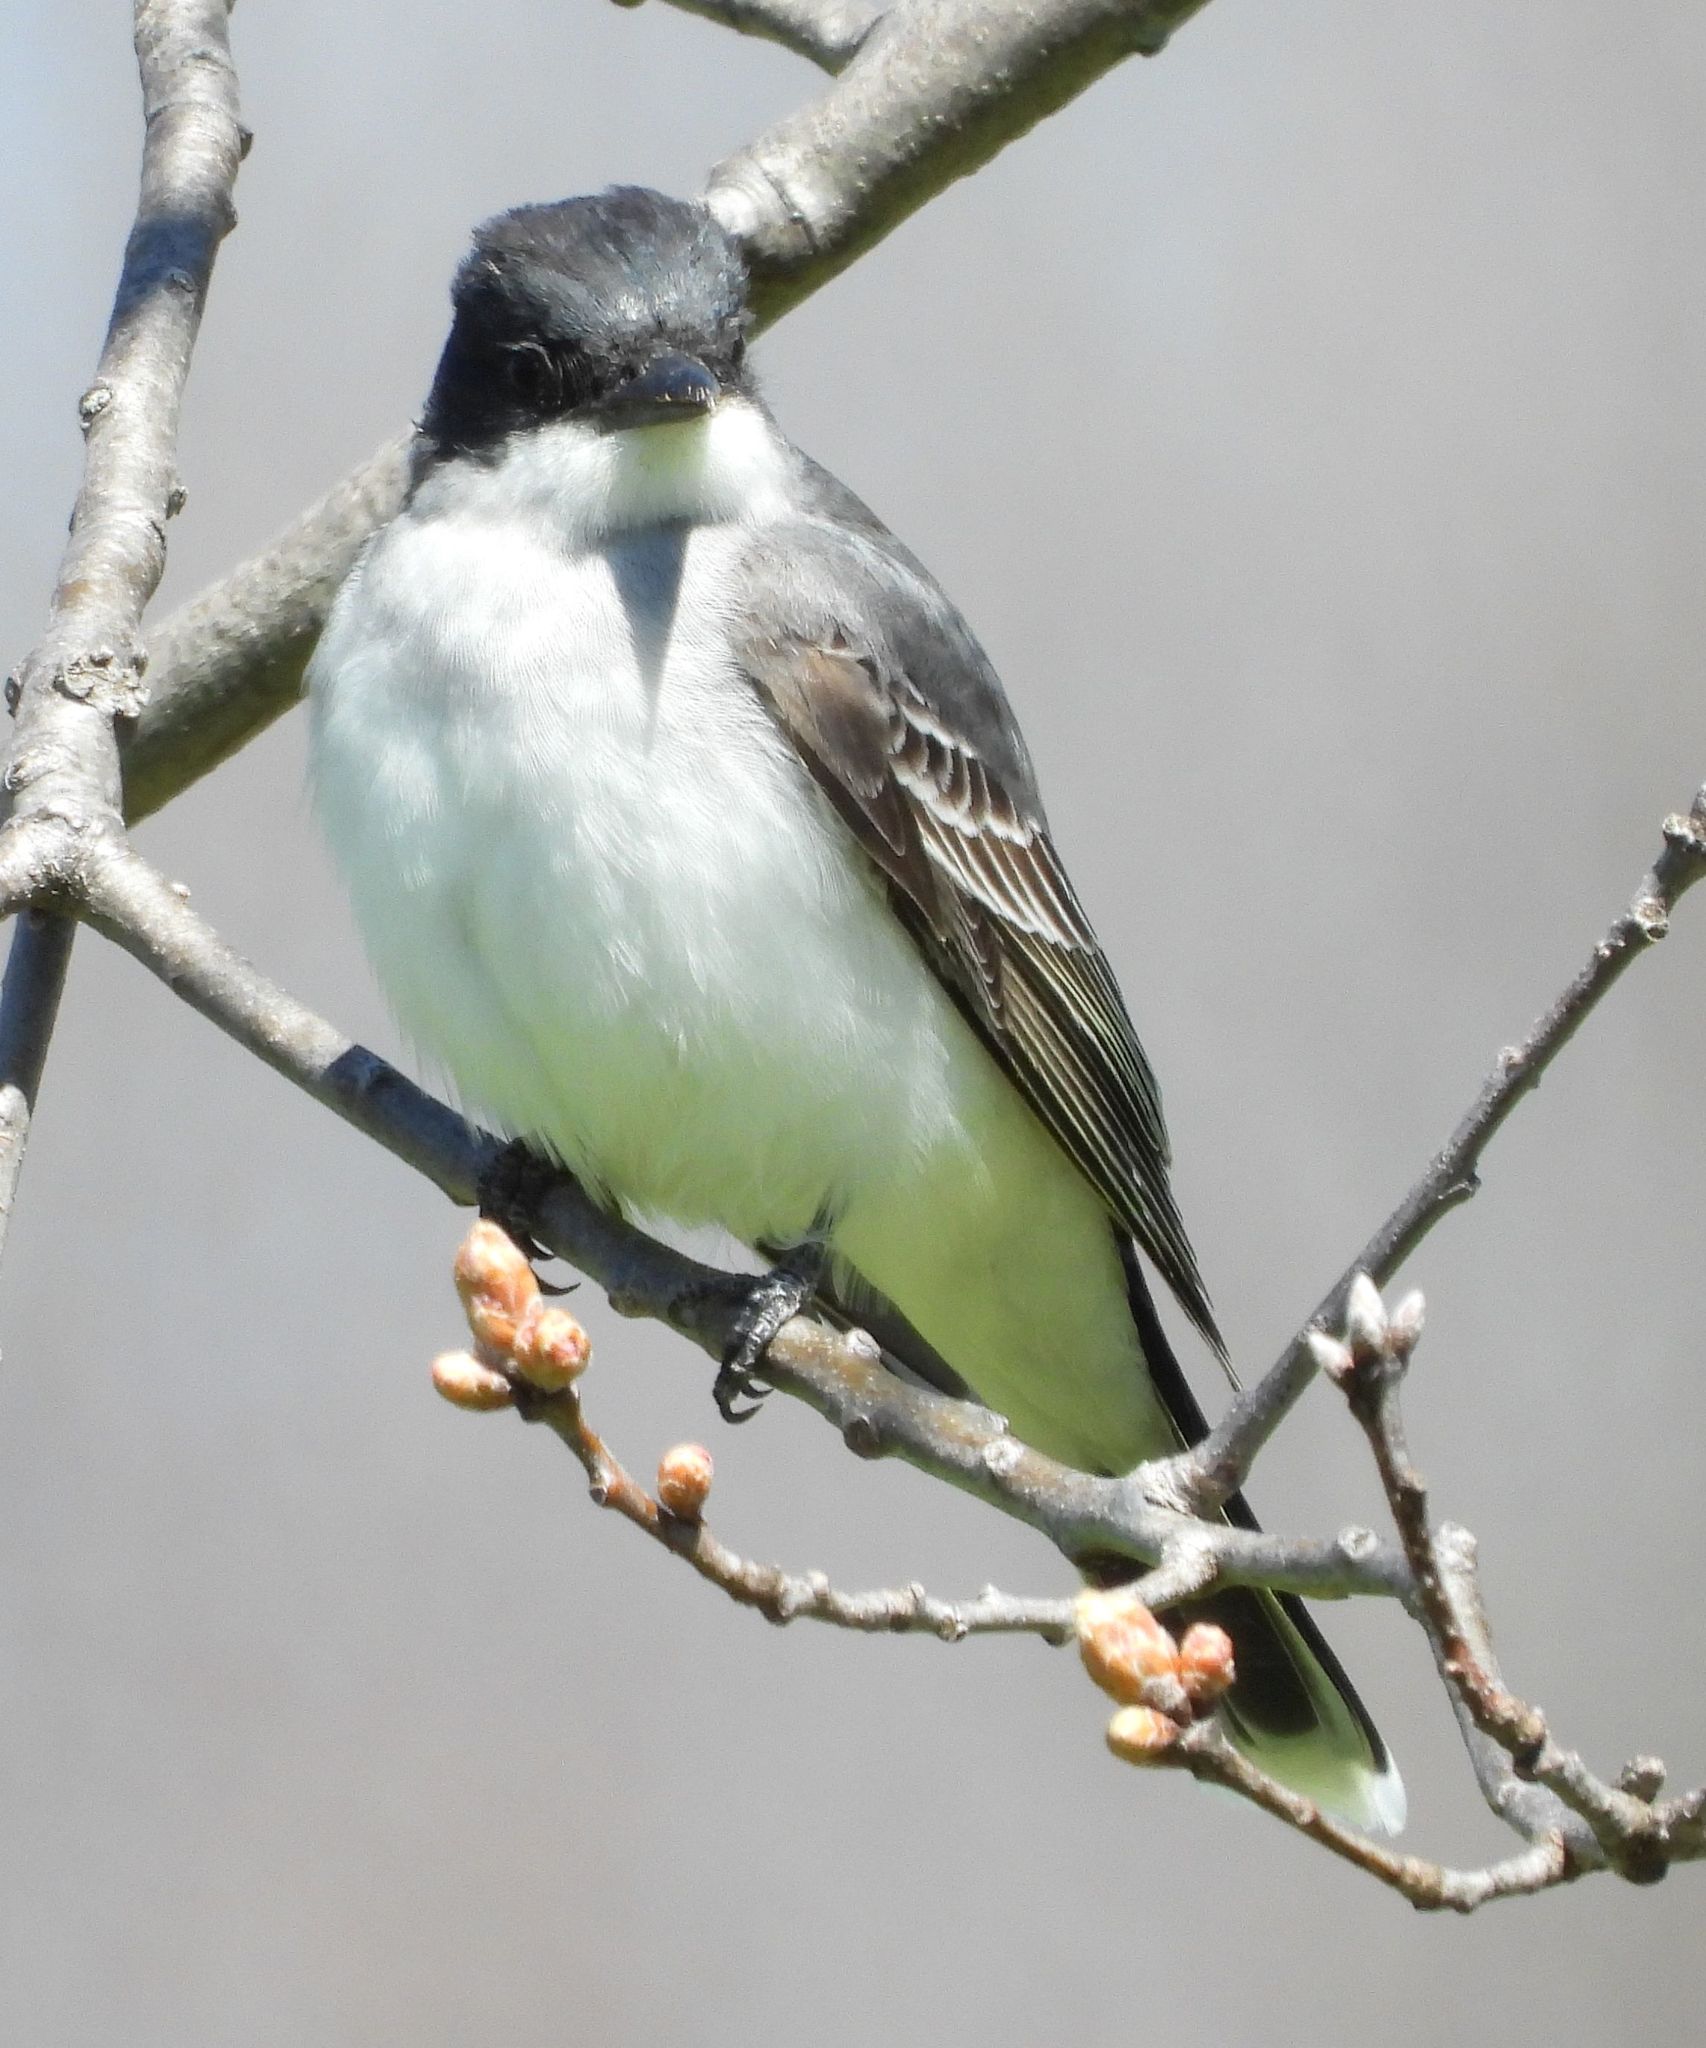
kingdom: Animalia
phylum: Chordata
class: Aves
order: Passeriformes
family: Tyrannidae
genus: Tyrannus
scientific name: Tyrannus tyrannus
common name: Eastern kingbird
